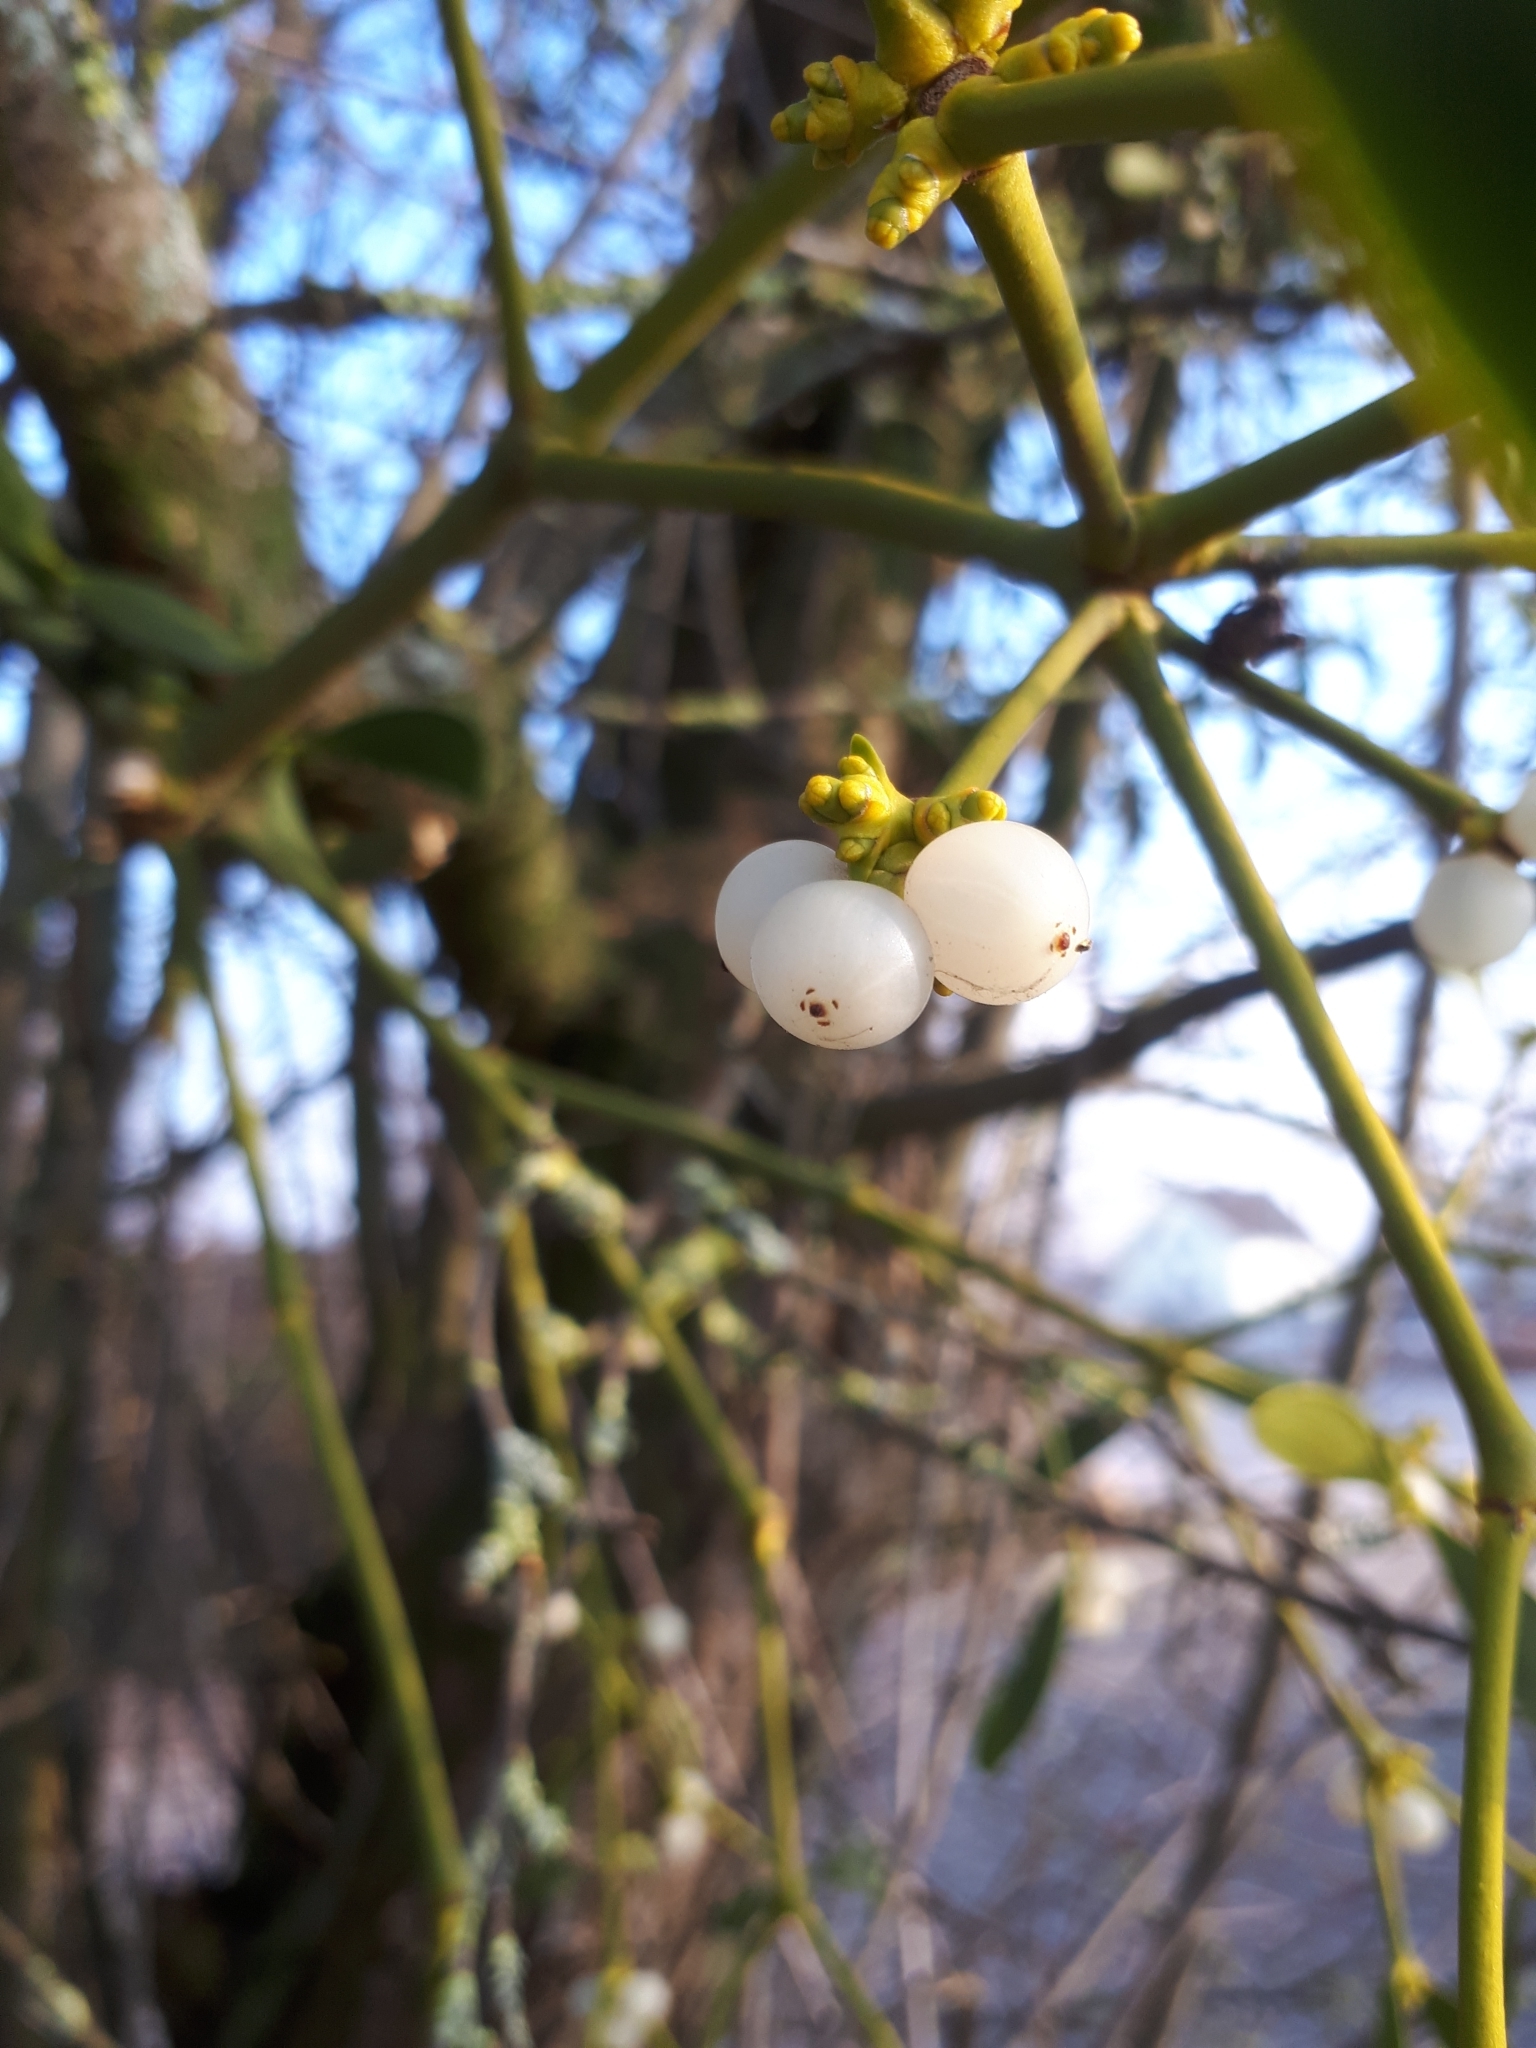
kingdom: Plantae
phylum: Tracheophyta
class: Magnoliopsida
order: Santalales
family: Viscaceae
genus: Viscum
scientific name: Viscum album
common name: Mistletoe
